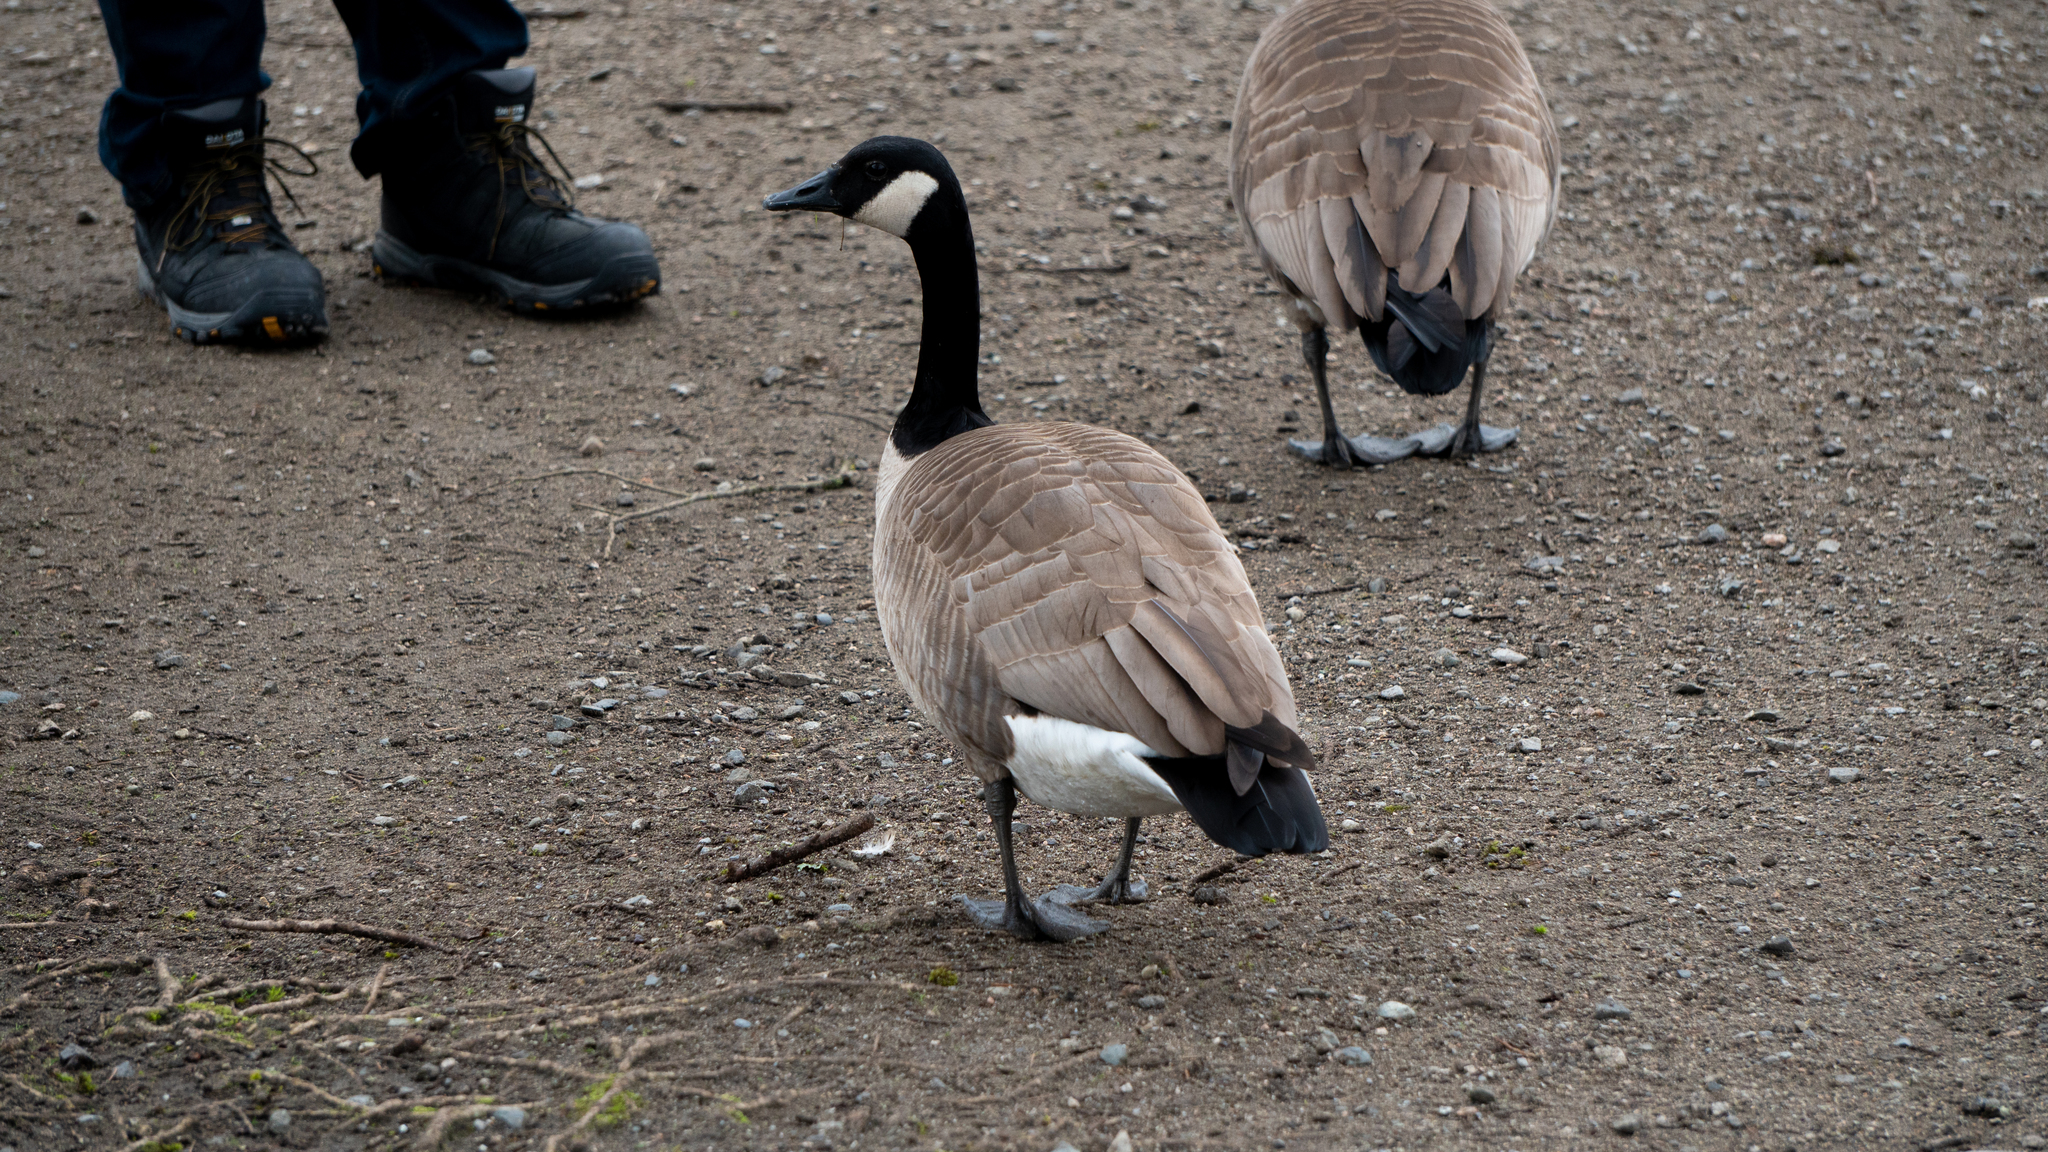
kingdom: Animalia
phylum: Chordata
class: Aves
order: Anseriformes
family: Anatidae
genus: Branta
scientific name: Branta canadensis
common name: Canada goose
